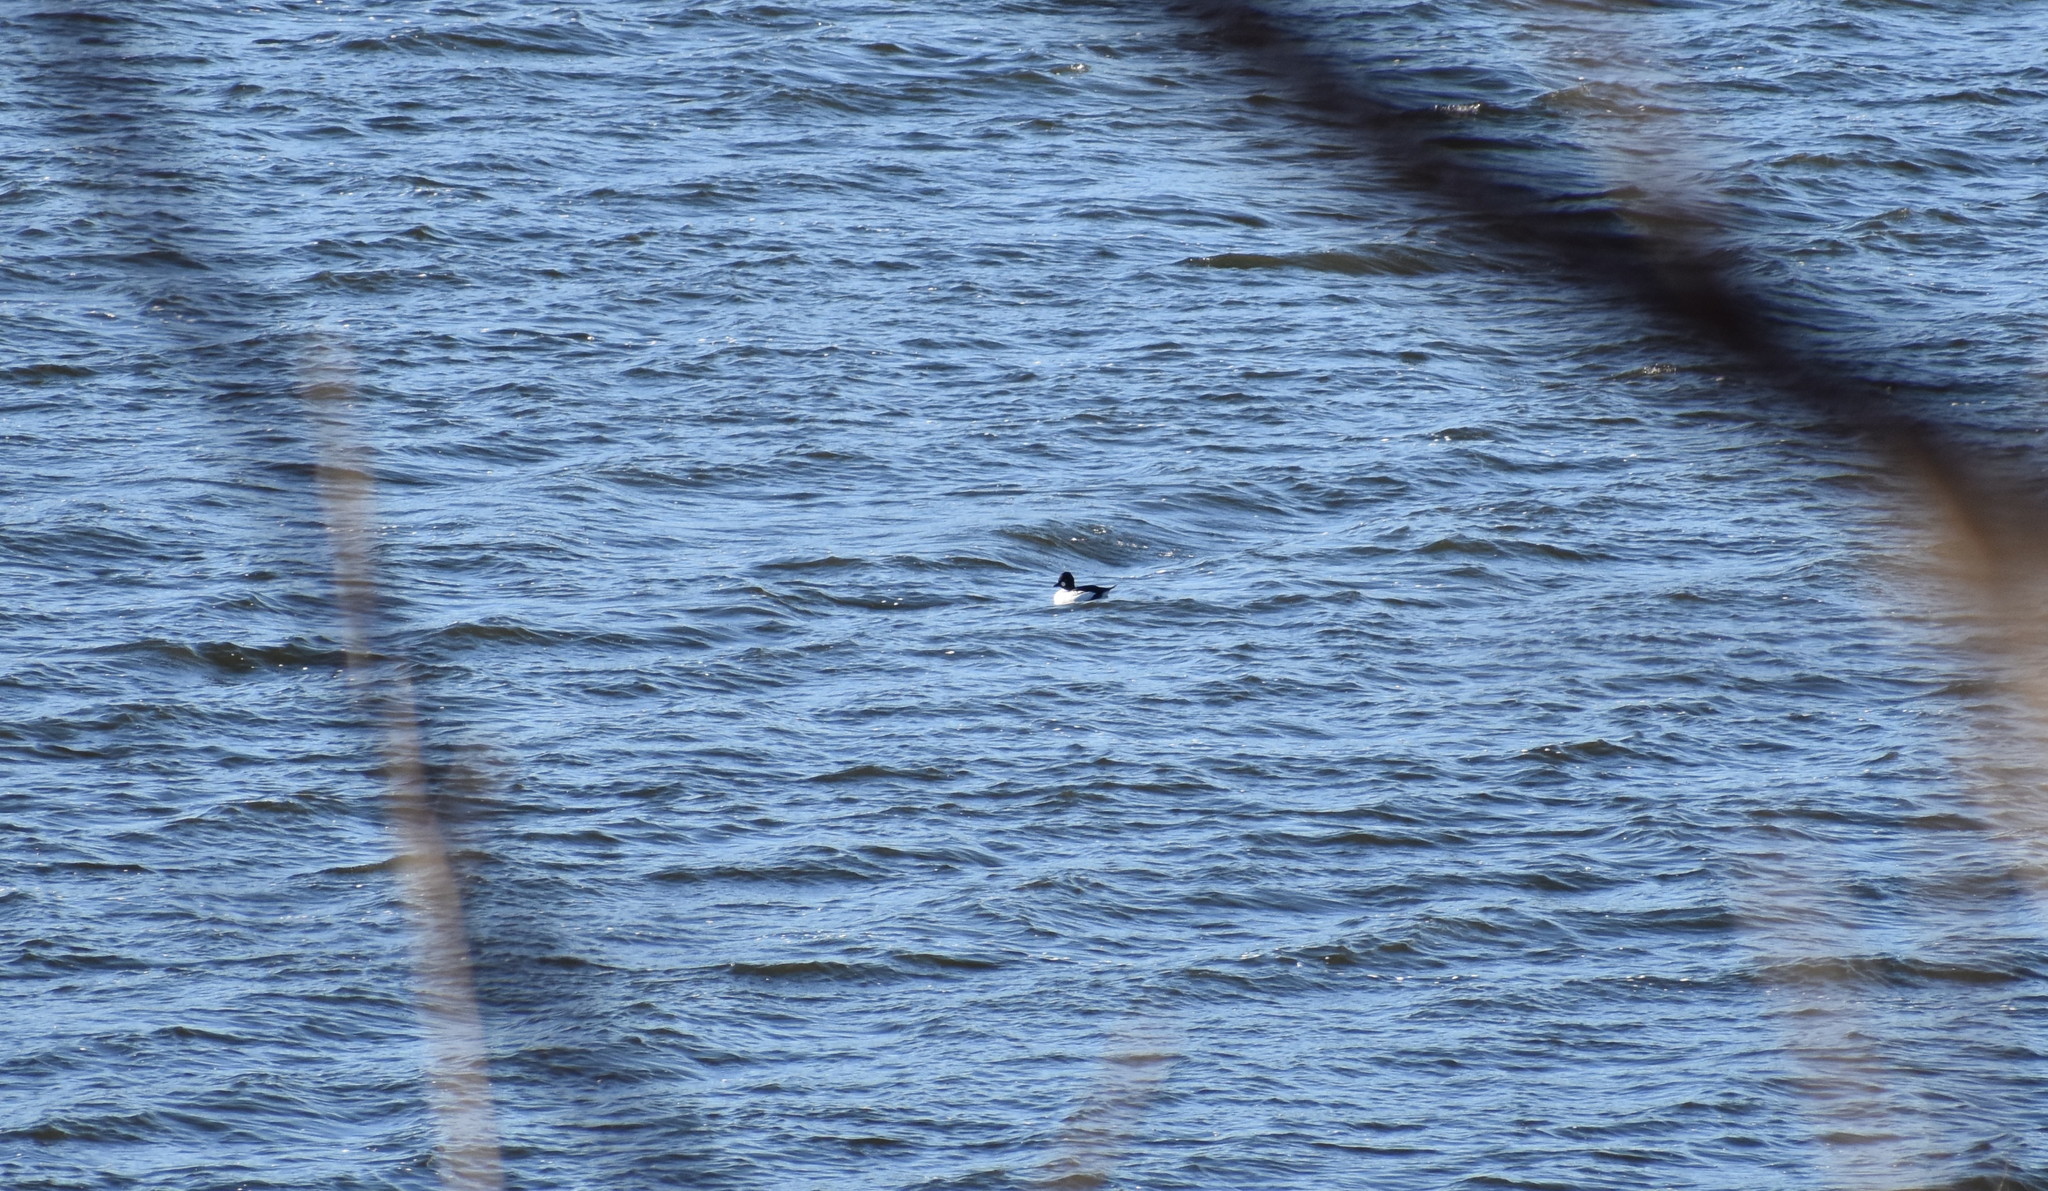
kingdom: Animalia
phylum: Chordata
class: Aves
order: Anseriformes
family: Anatidae
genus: Bucephala
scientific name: Bucephala clangula
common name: Common goldeneye
